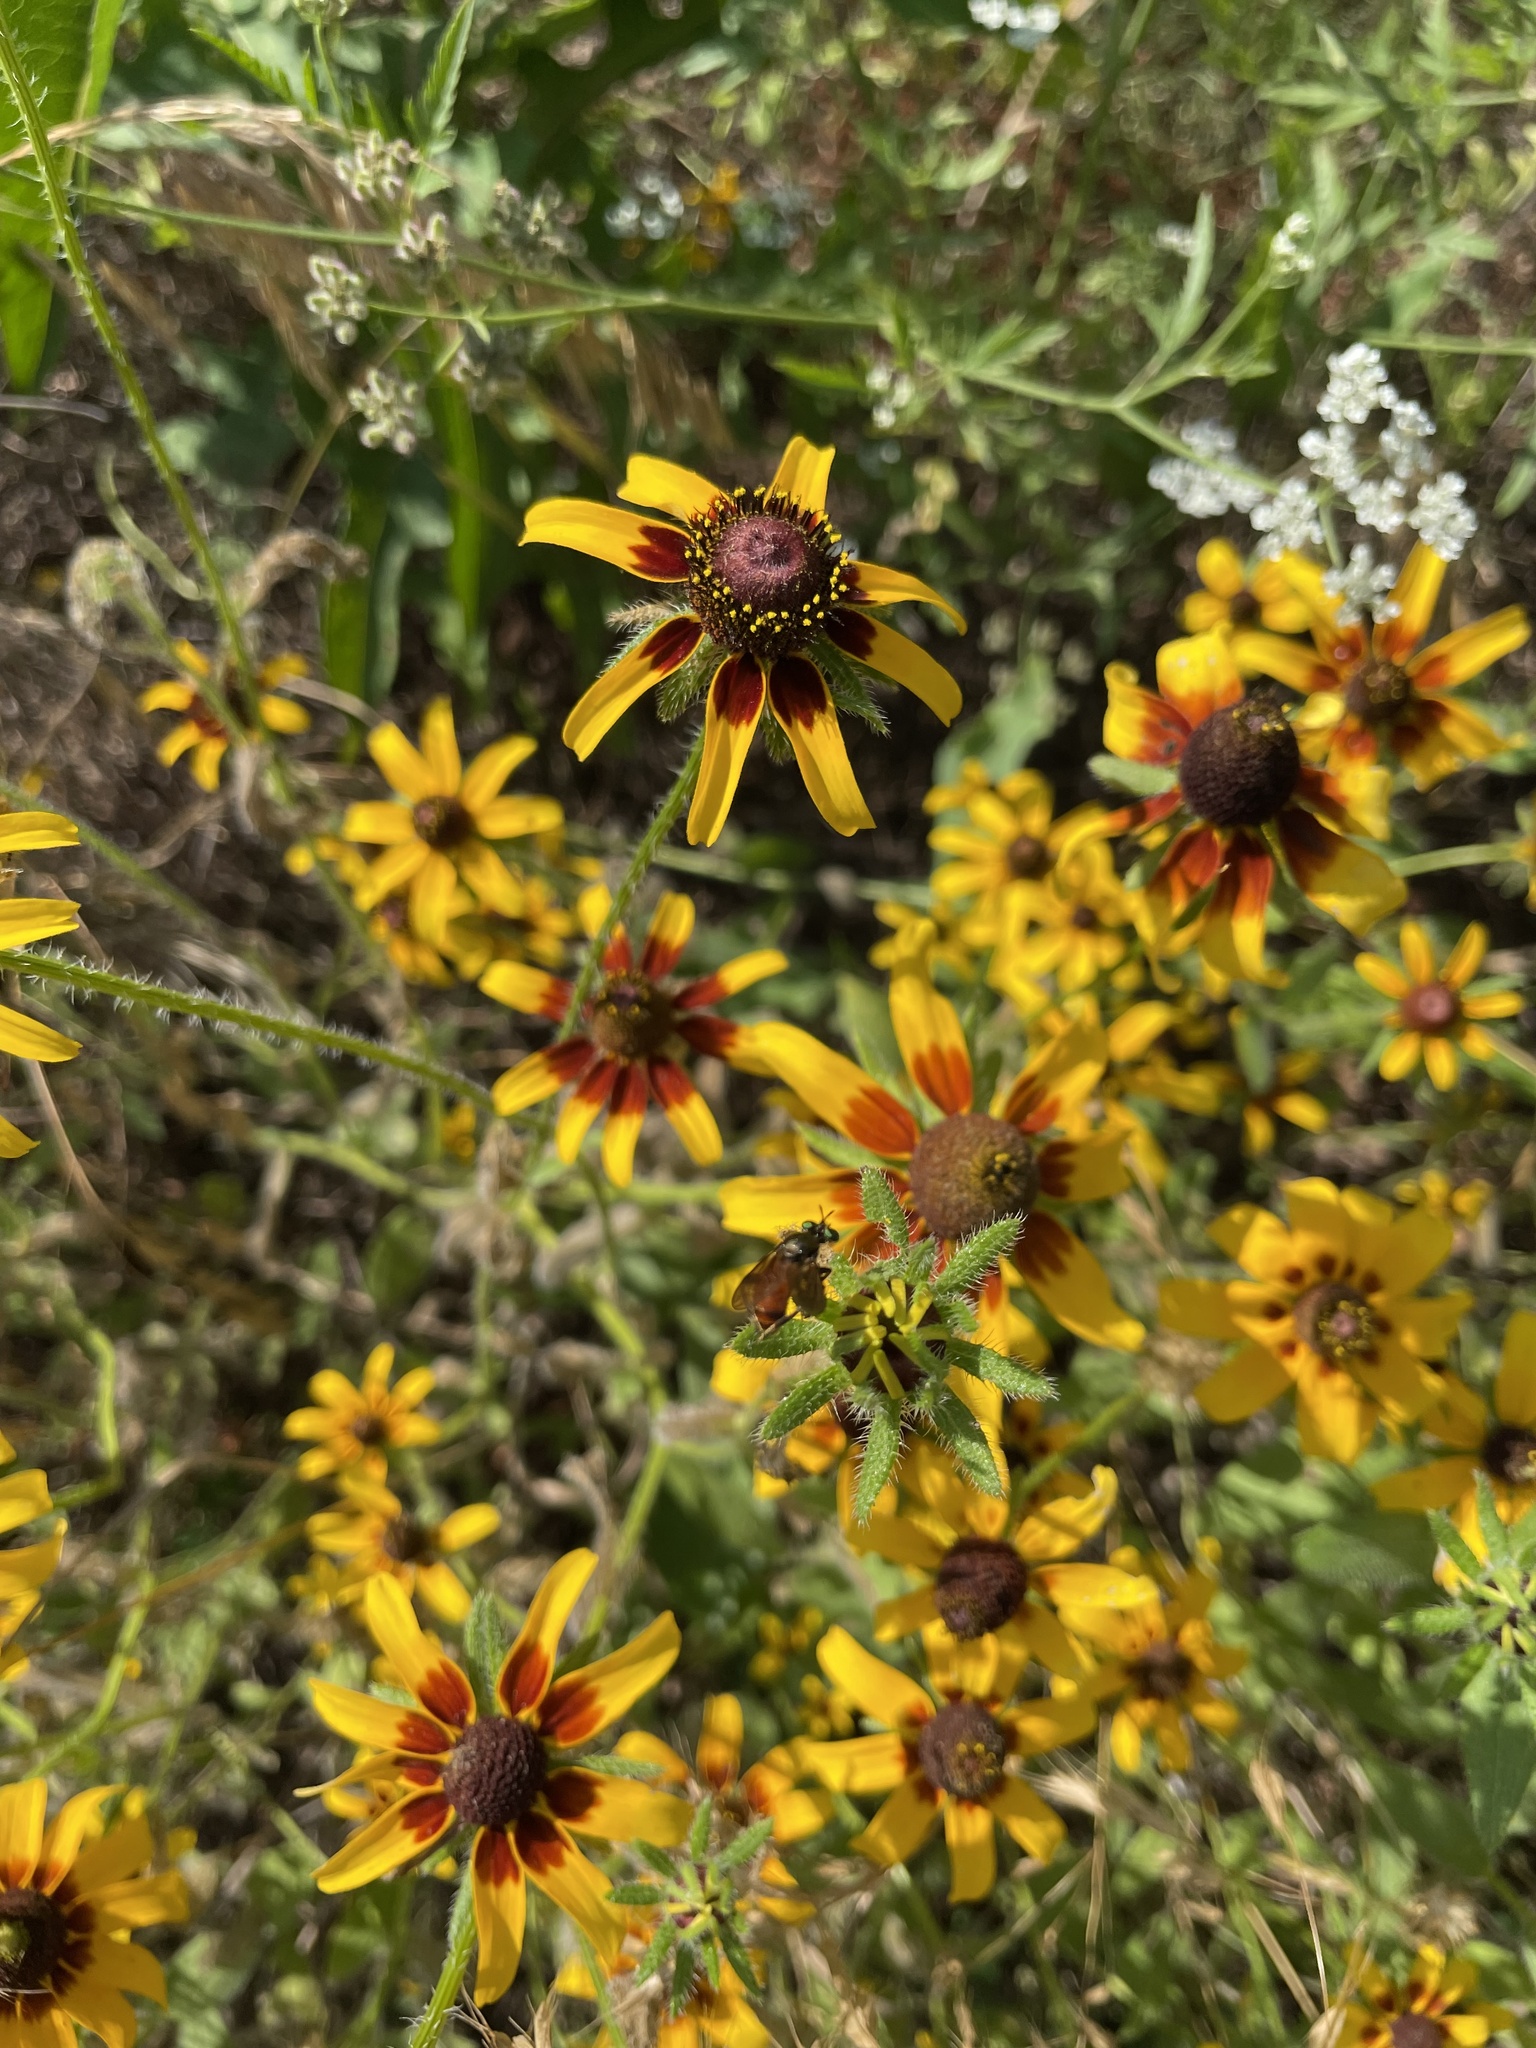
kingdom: Animalia
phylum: Arthropoda
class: Insecta
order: Diptera
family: Asilidae
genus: Lampria
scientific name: Lampria bicolor
